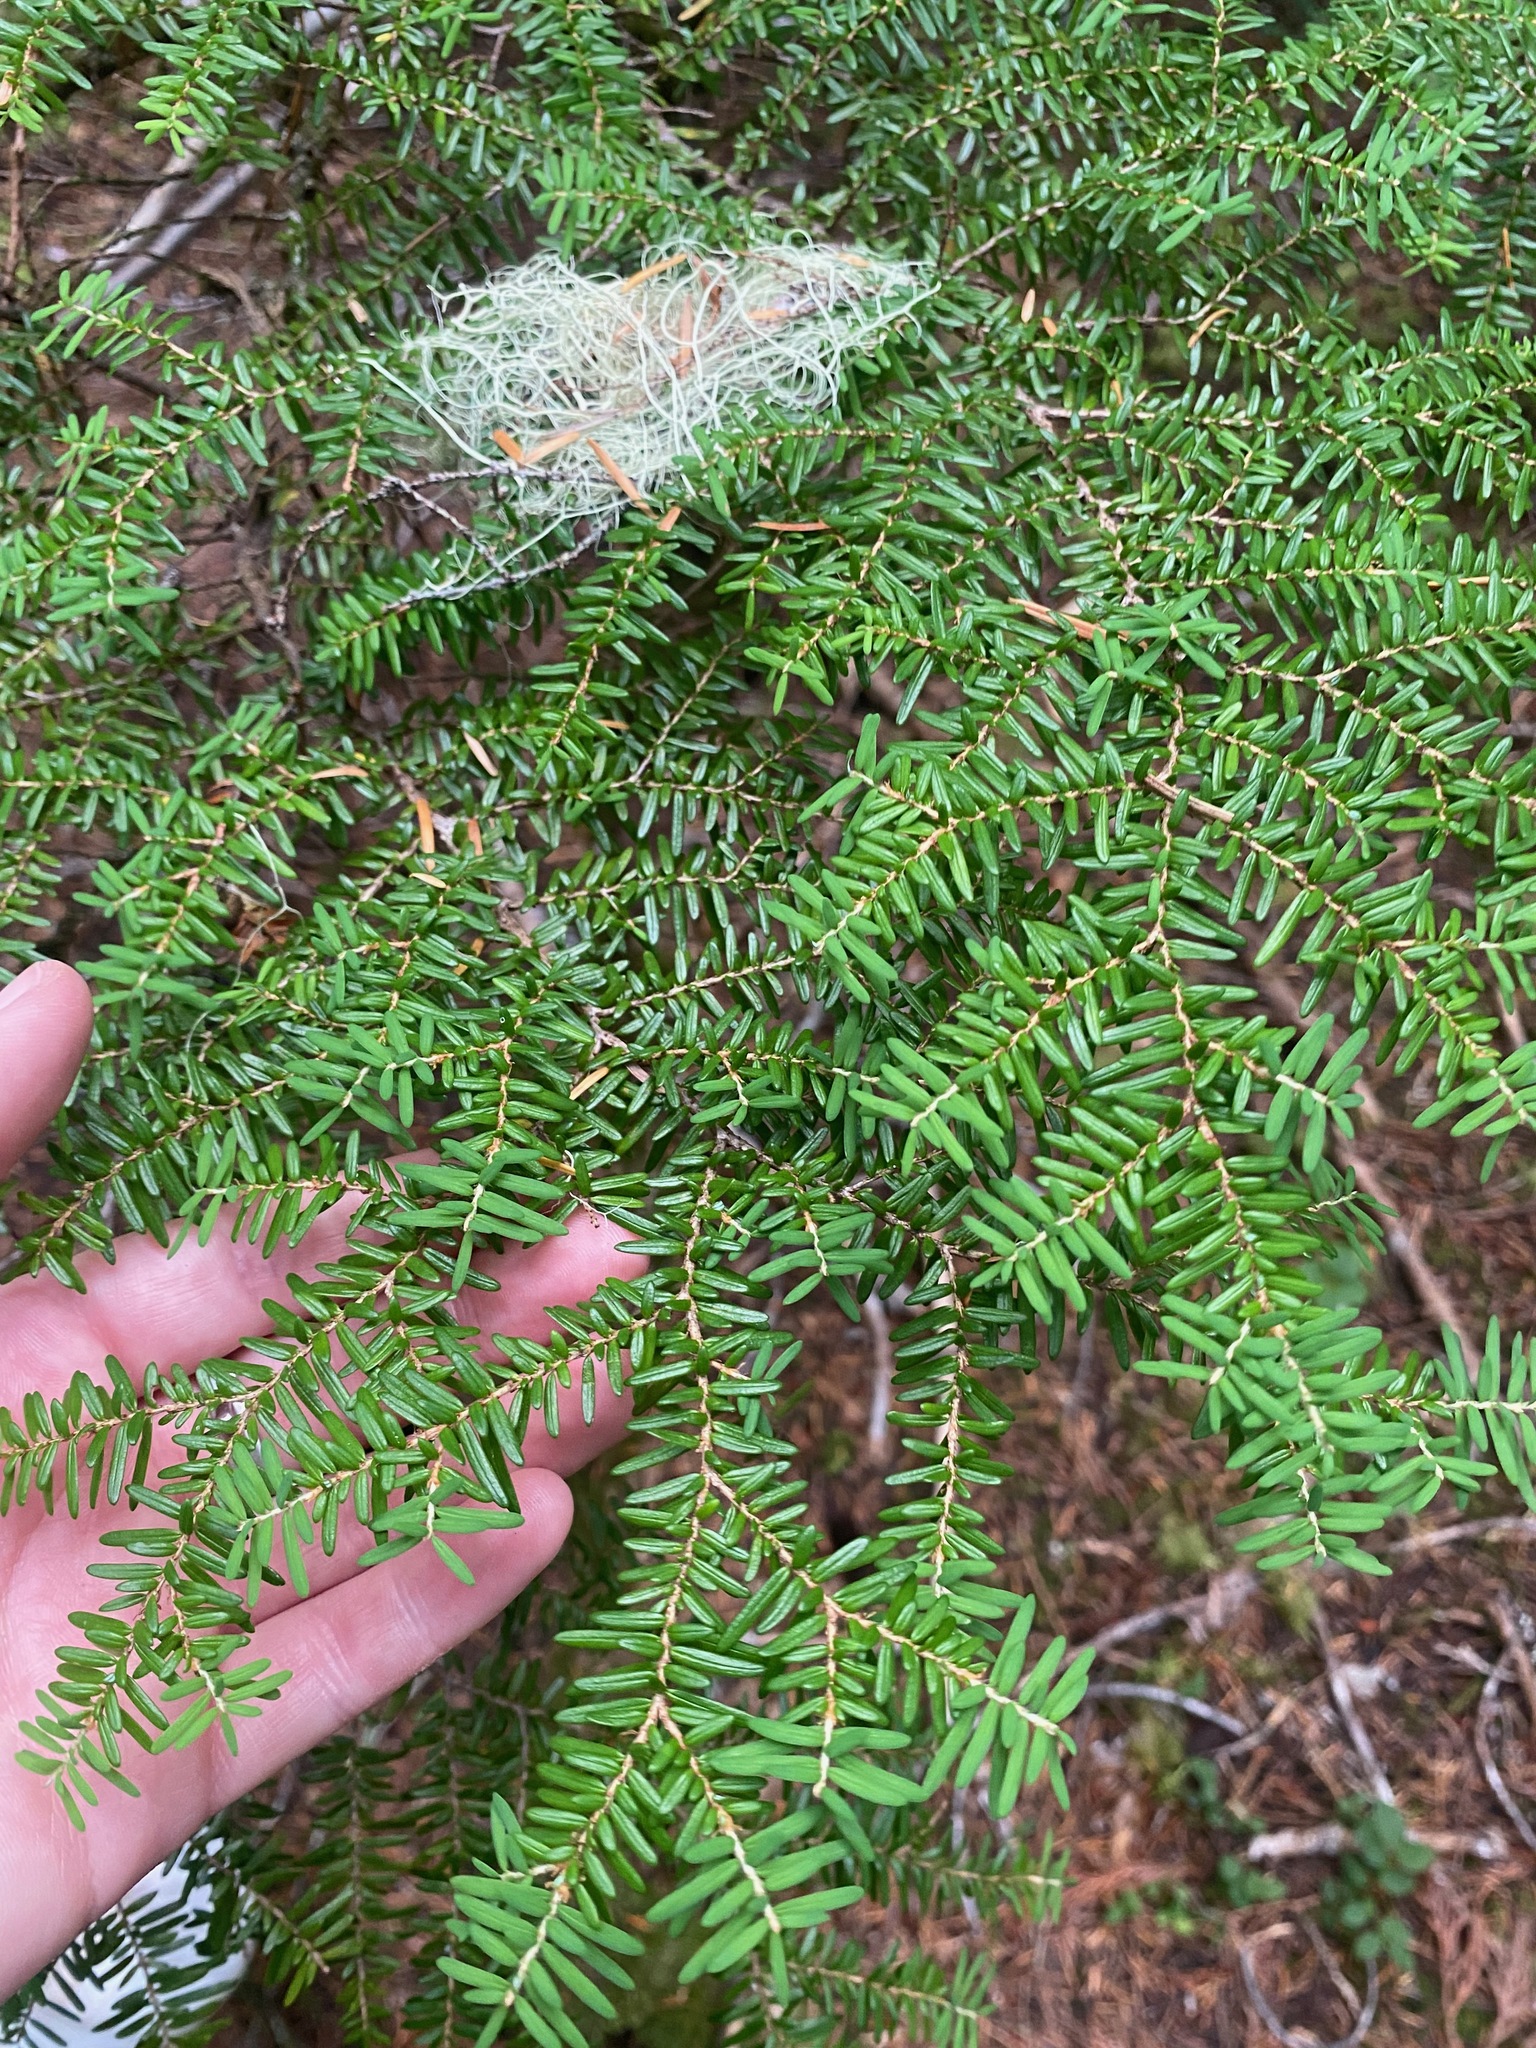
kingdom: Plantae
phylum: Tracheophyta
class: Pinopsida
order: Pinales
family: Pinaceae
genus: Tsuga
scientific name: Tsuga heterophylla
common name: Western hemlock
